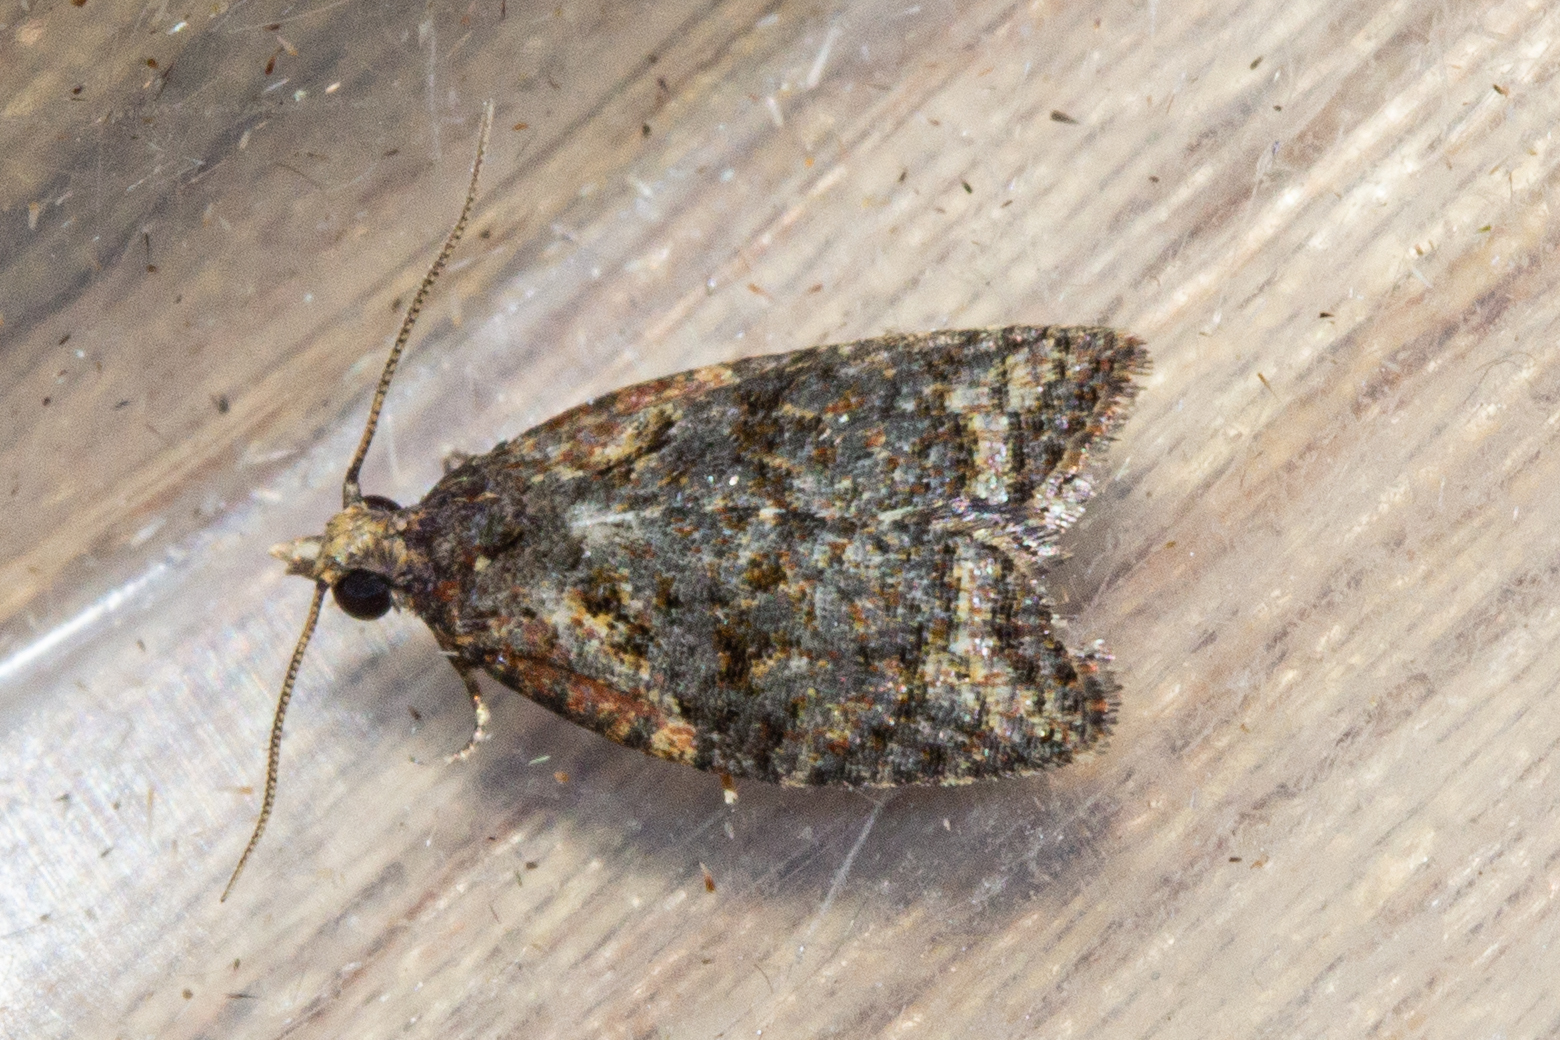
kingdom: Animalia
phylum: Arthropoda
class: Insecta
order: Lepidoptera
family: Tortricidae
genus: Capua
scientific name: Capua intractana
